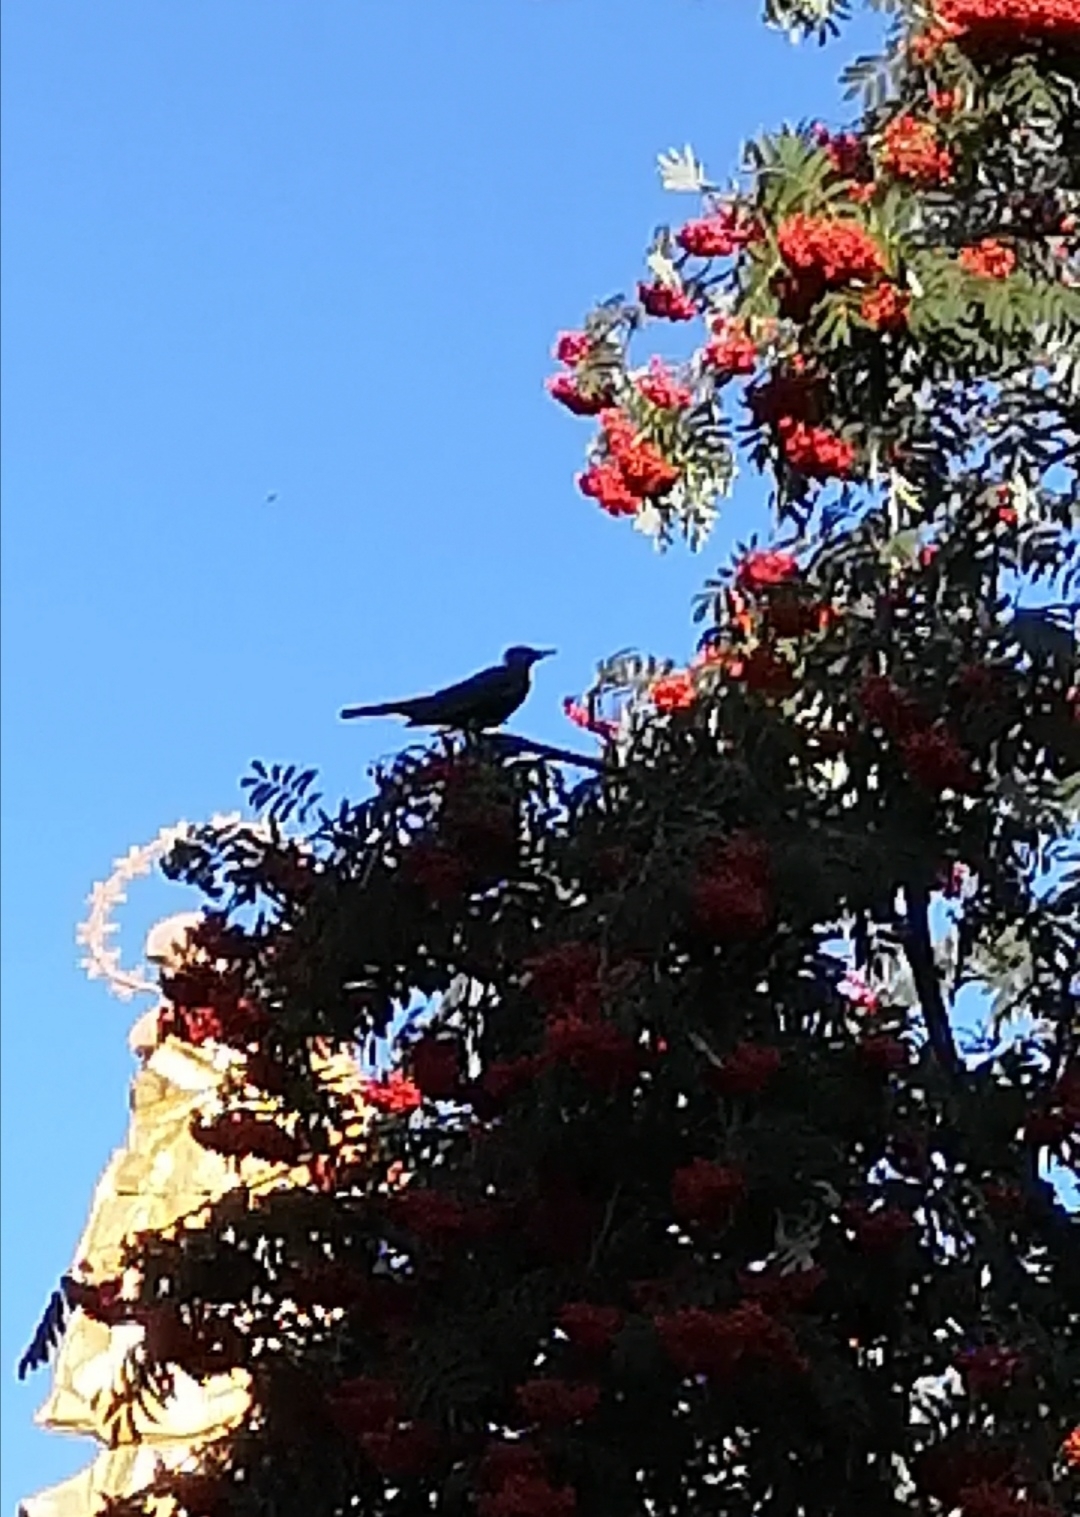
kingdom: Animalia
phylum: Chordata
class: Aves
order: Passeriformes
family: Turdidae
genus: Turdus
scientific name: Turdus merula
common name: Common blackbird
